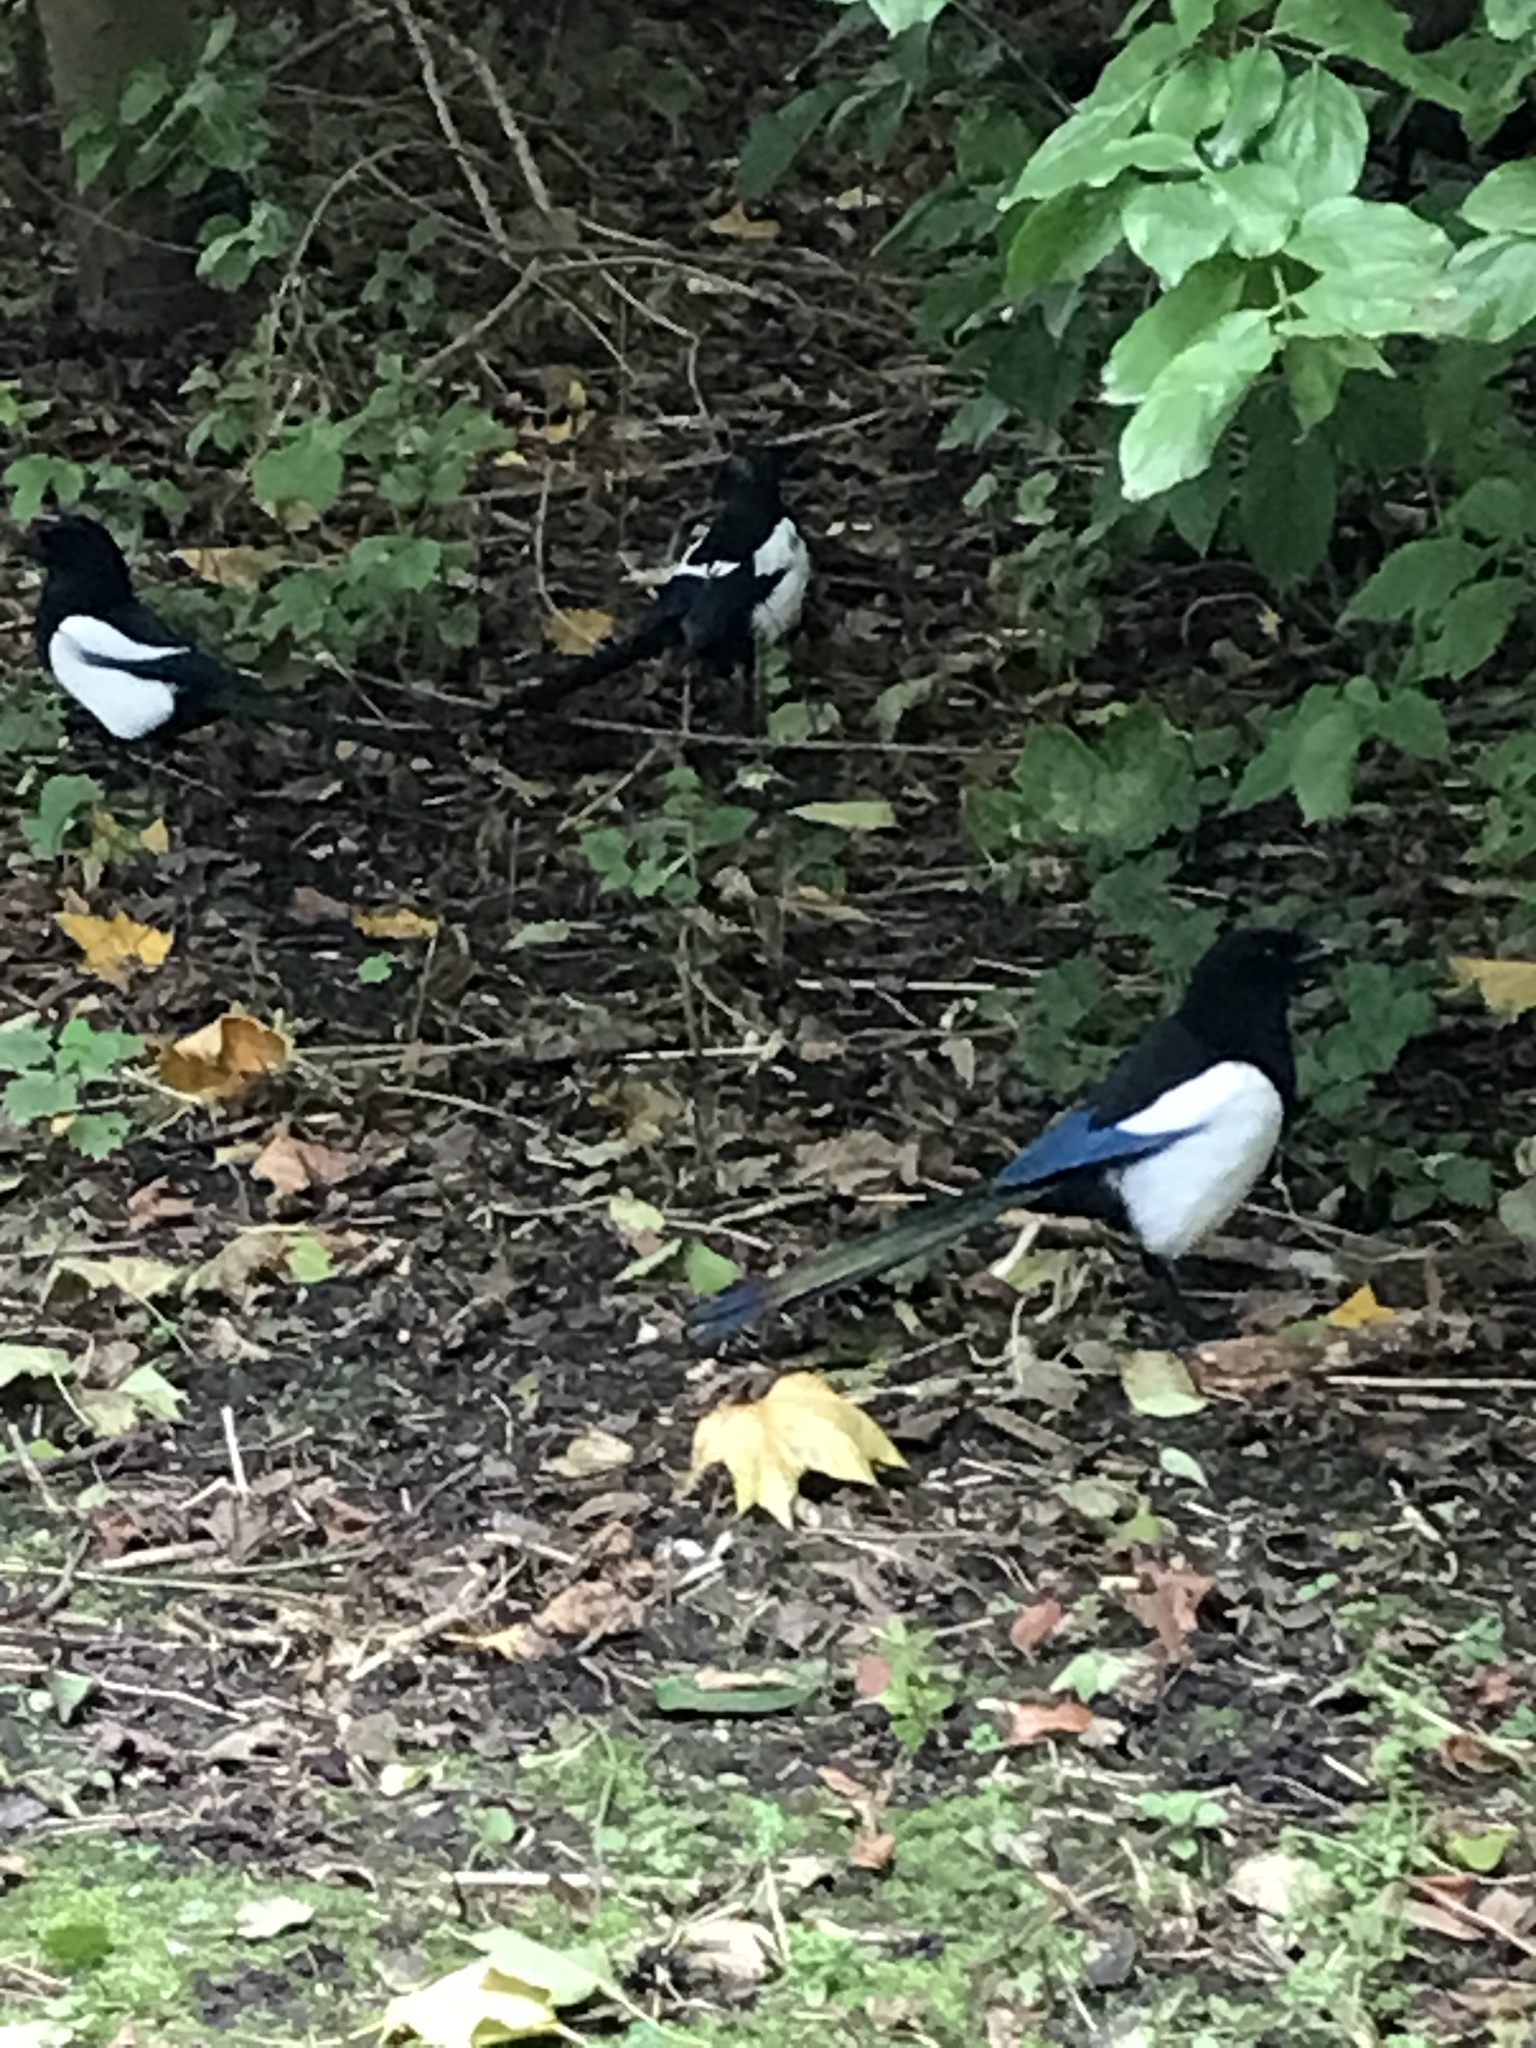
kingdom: Animalia
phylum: Chordata
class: Aves
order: Passeriformes
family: Corvidae
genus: Pica
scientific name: Pica pica
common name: Eurasian magpie
